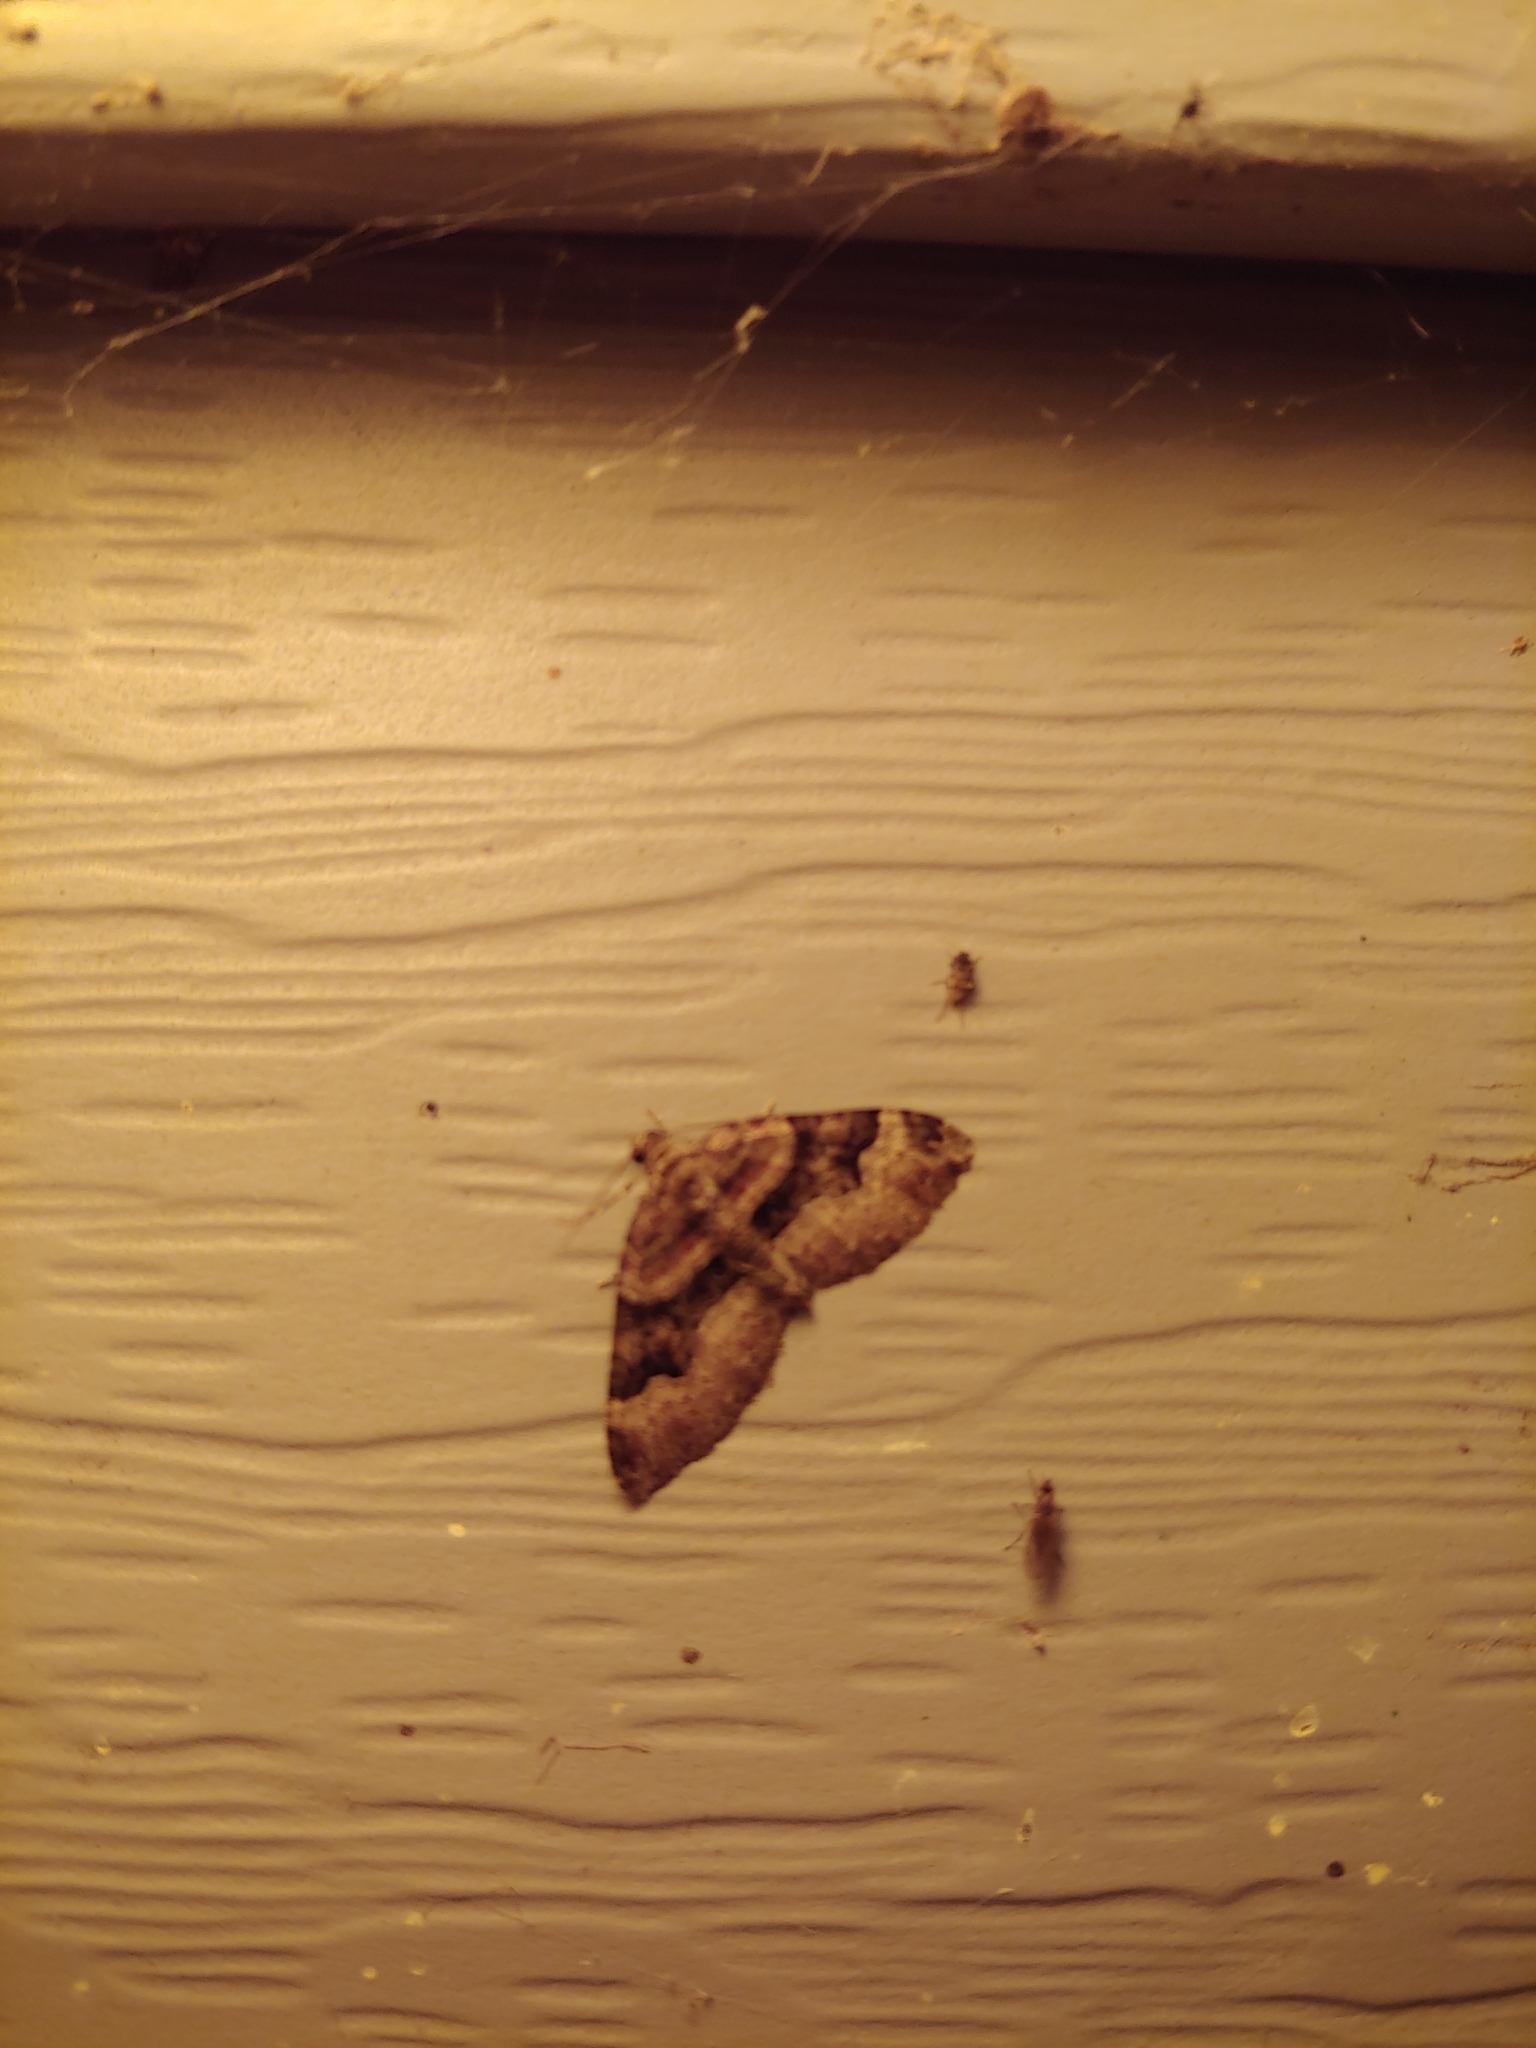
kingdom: Animalia
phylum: Arthropoda
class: Insecta
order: Lepidoptera
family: Geometridae
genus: Xanthorhoe
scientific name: Xanthorhoe lacustrata
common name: Toothed brown carpet
